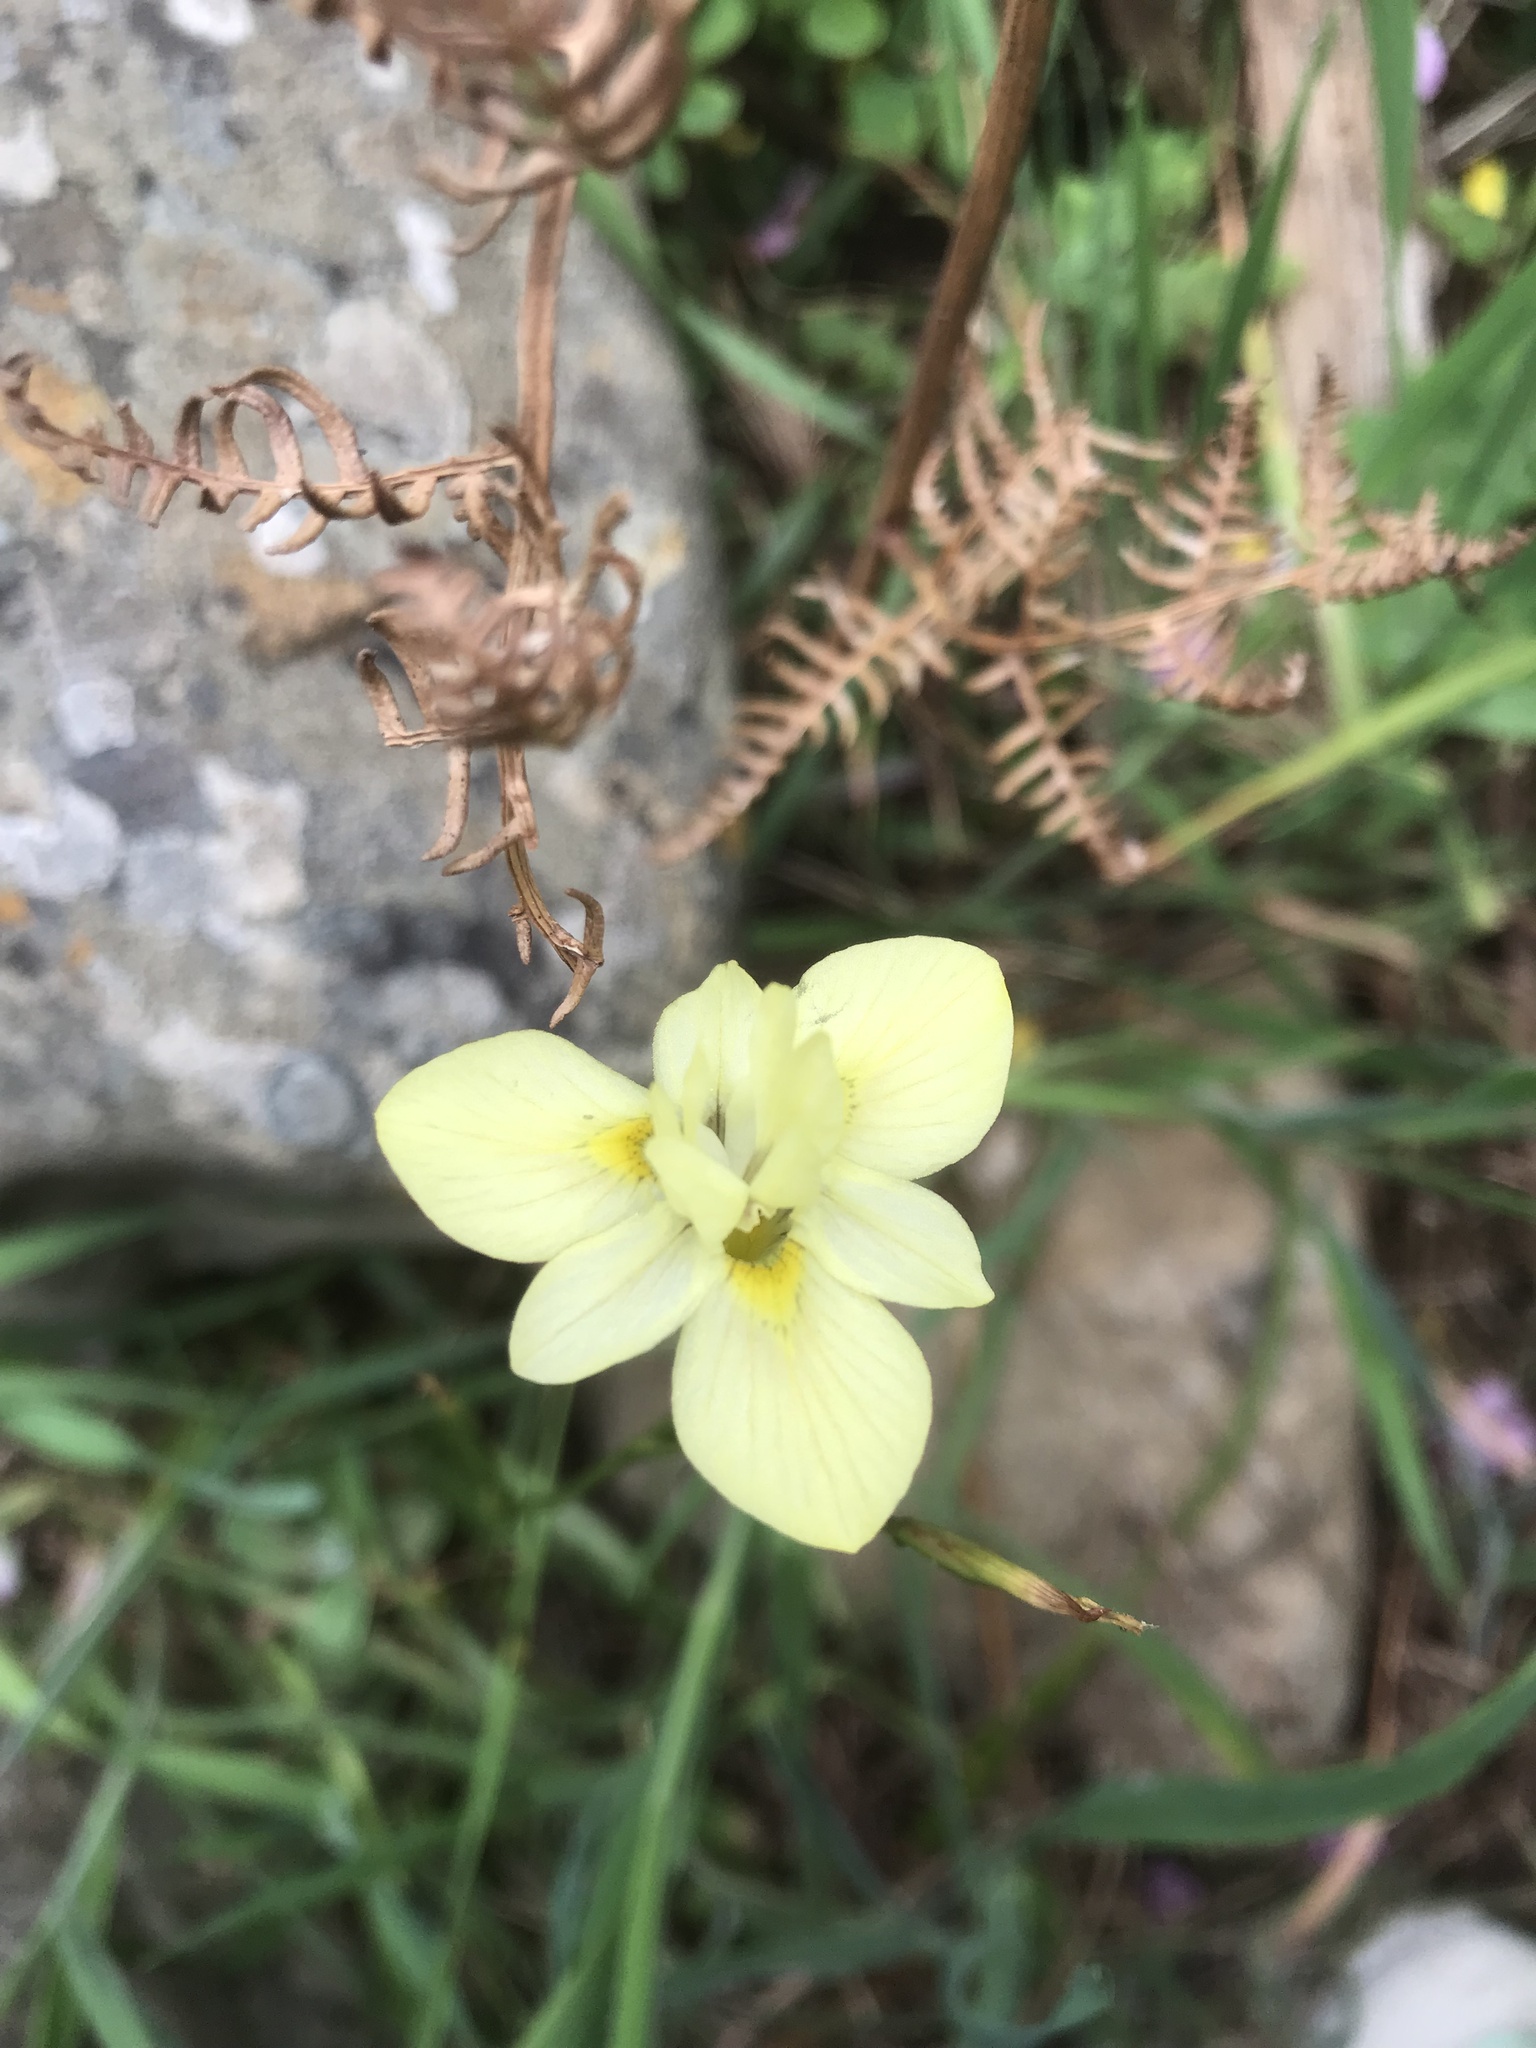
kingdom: Plantae
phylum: Tracheophyta
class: Liliopsida
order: Asparagales
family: Iridaceae
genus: Moraea
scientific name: Moraea gawleri
